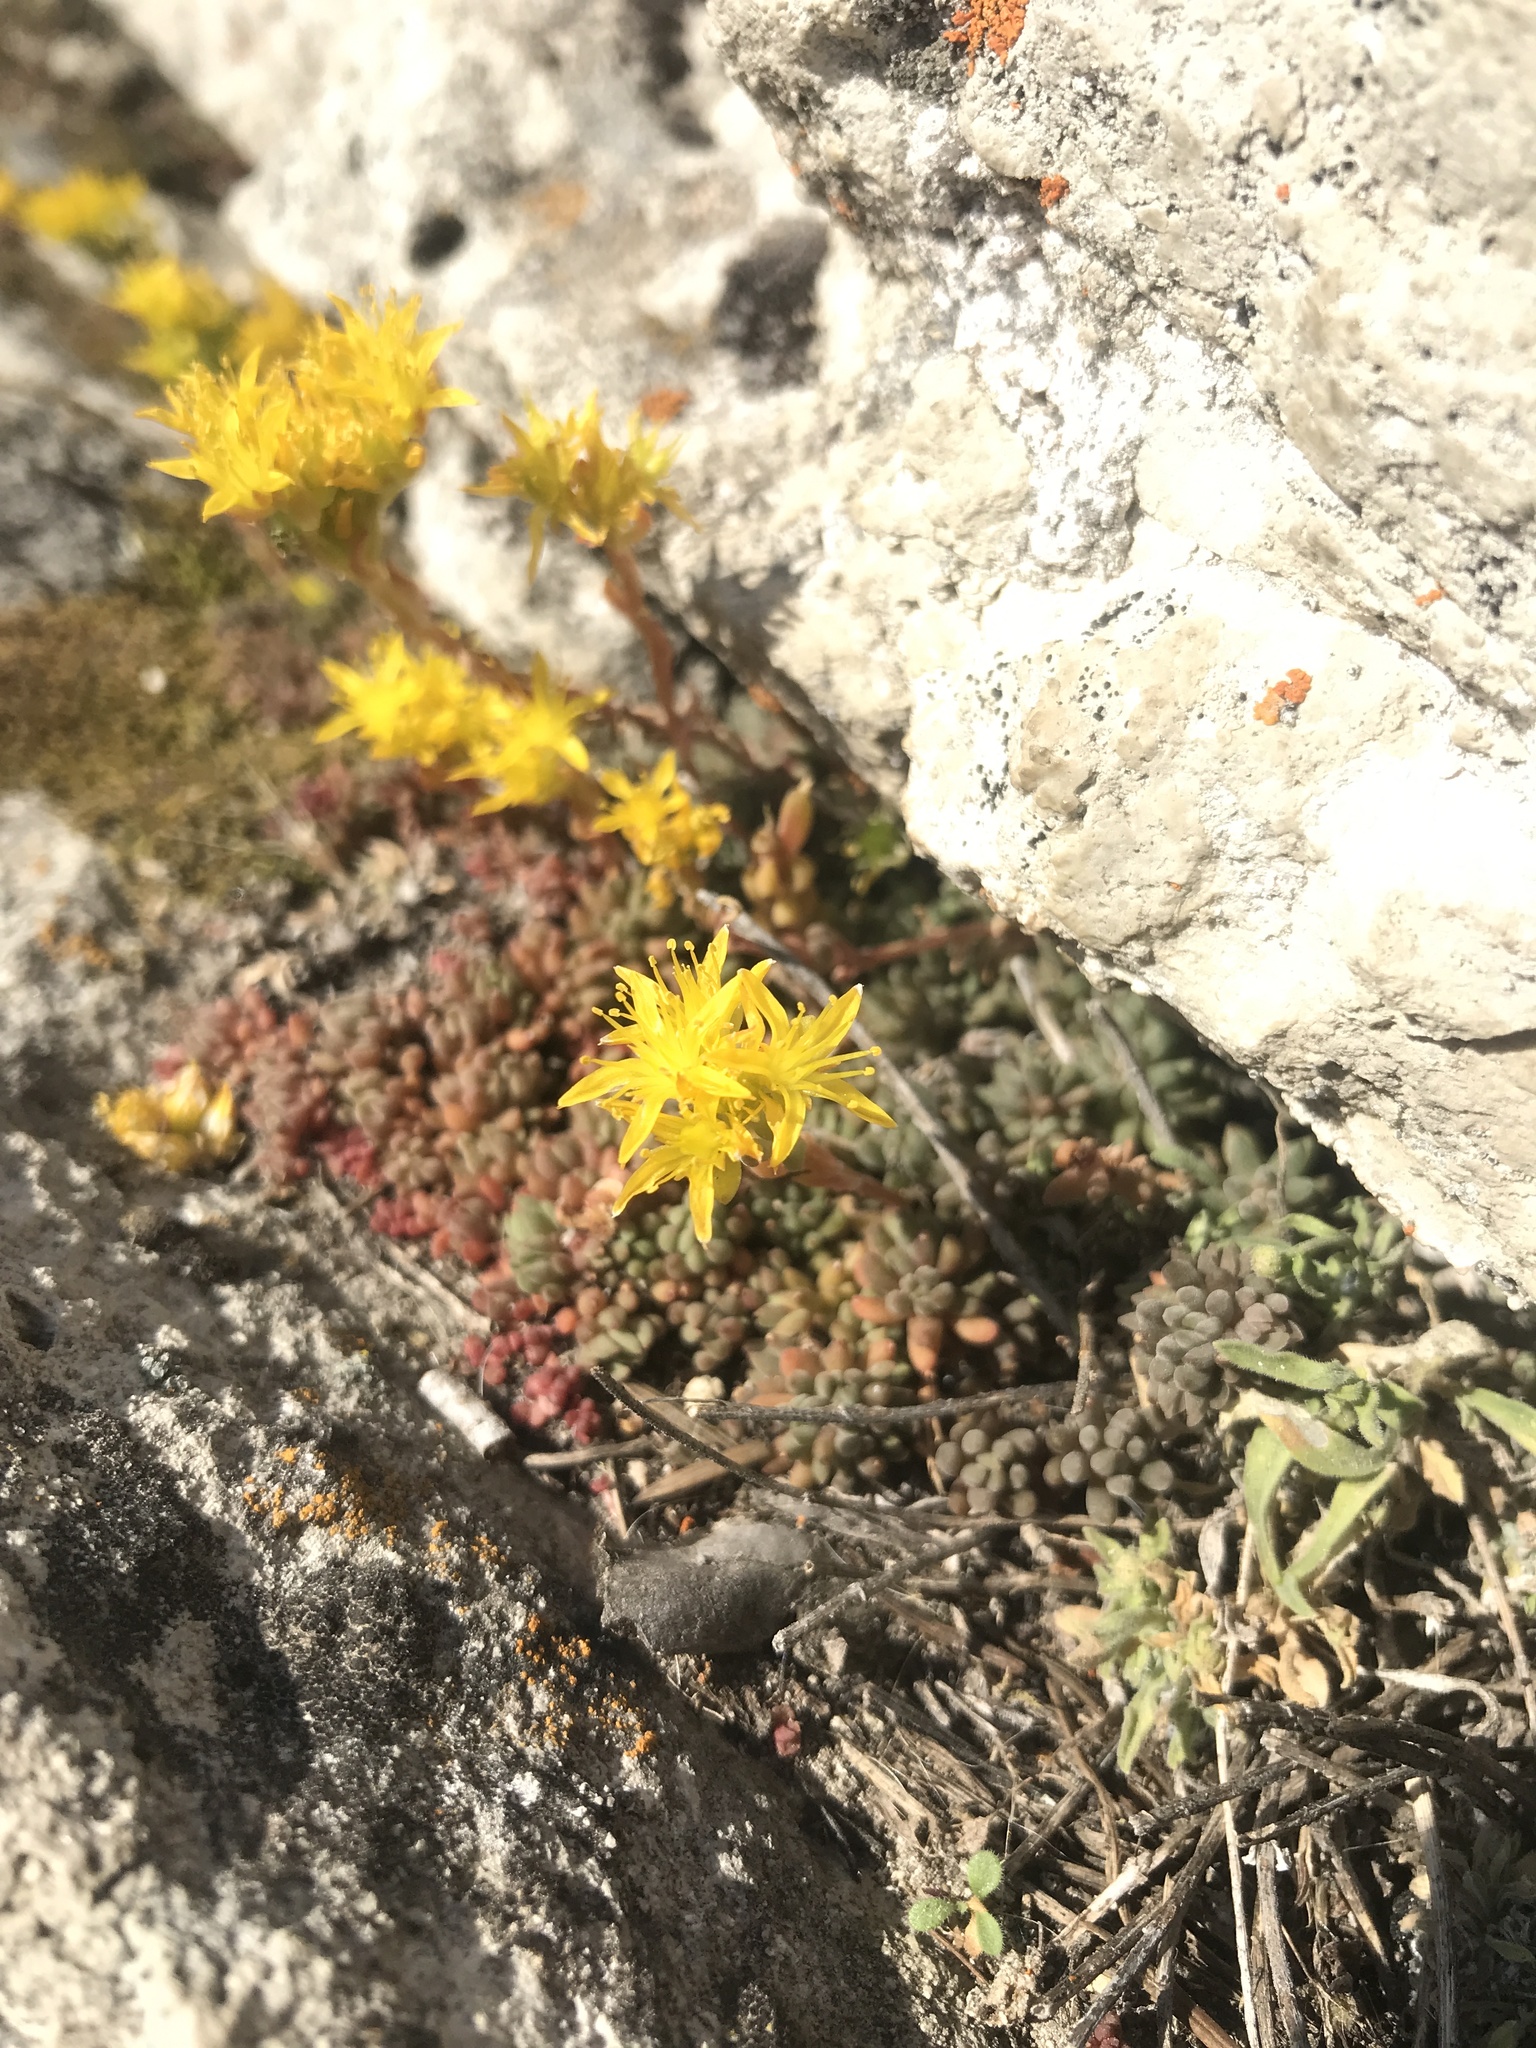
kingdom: Plantae
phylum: Tracheophyta
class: Magnoliopsida
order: Saxifragales
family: Crassulaceae
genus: Sedum
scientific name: Sedum lanceolatum
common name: Common stonecrop
